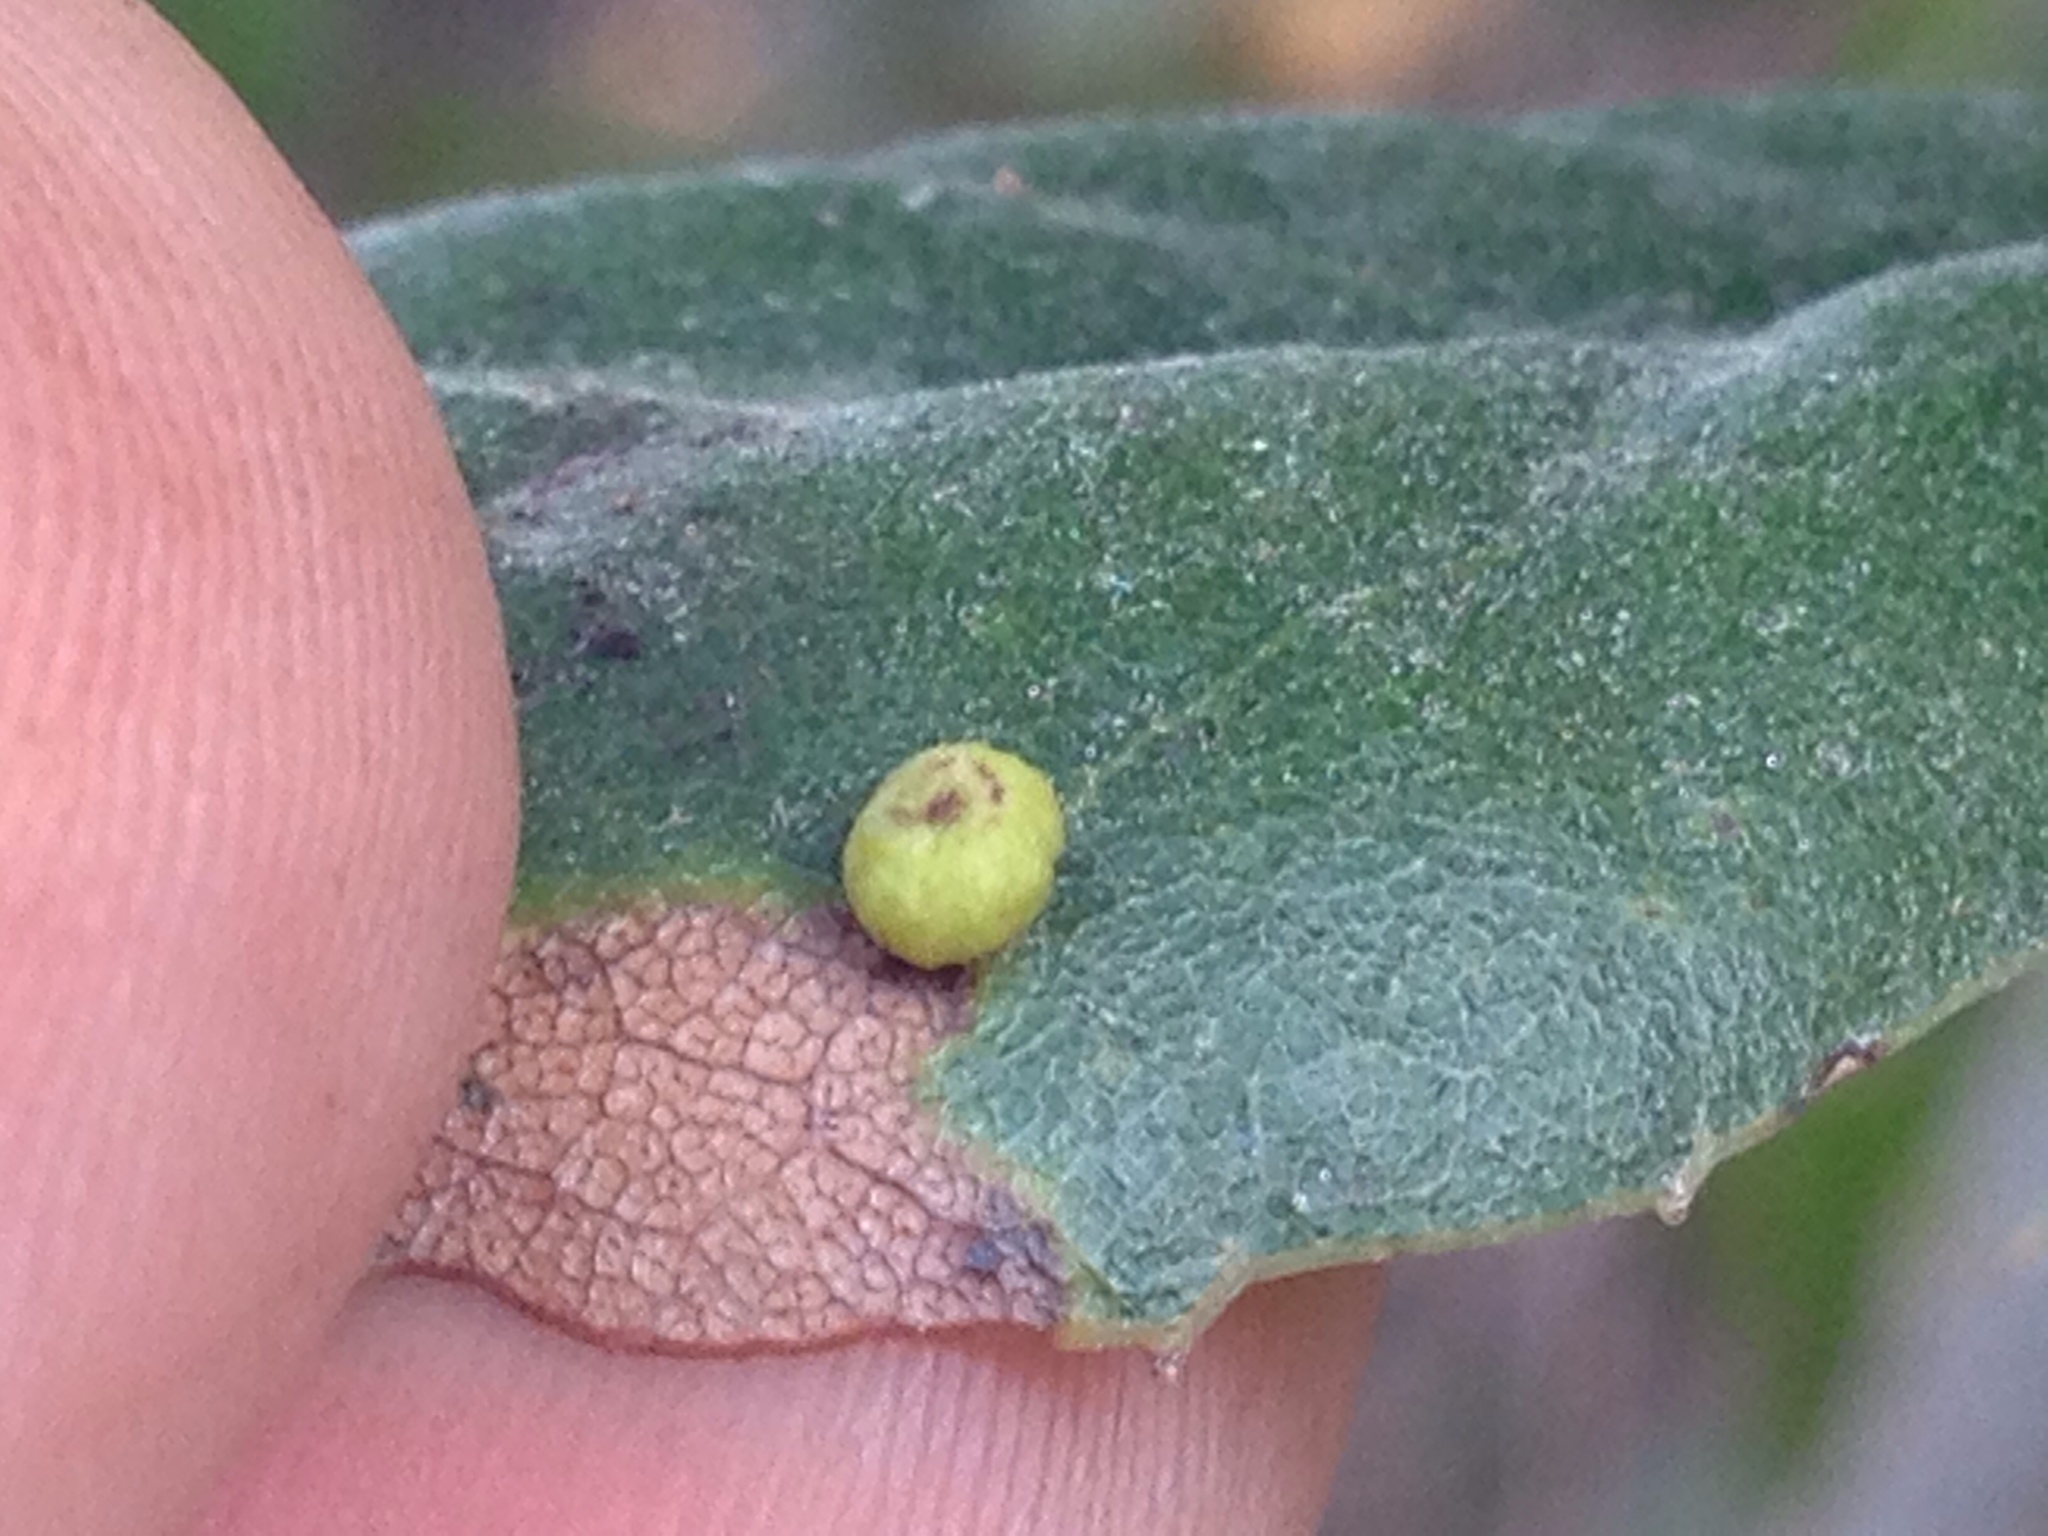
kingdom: Animalia
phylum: Arthropoda
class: Insecta
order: Hymenoptera
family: Cynipidae
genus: Dryocosmus
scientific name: Dryocosmus
